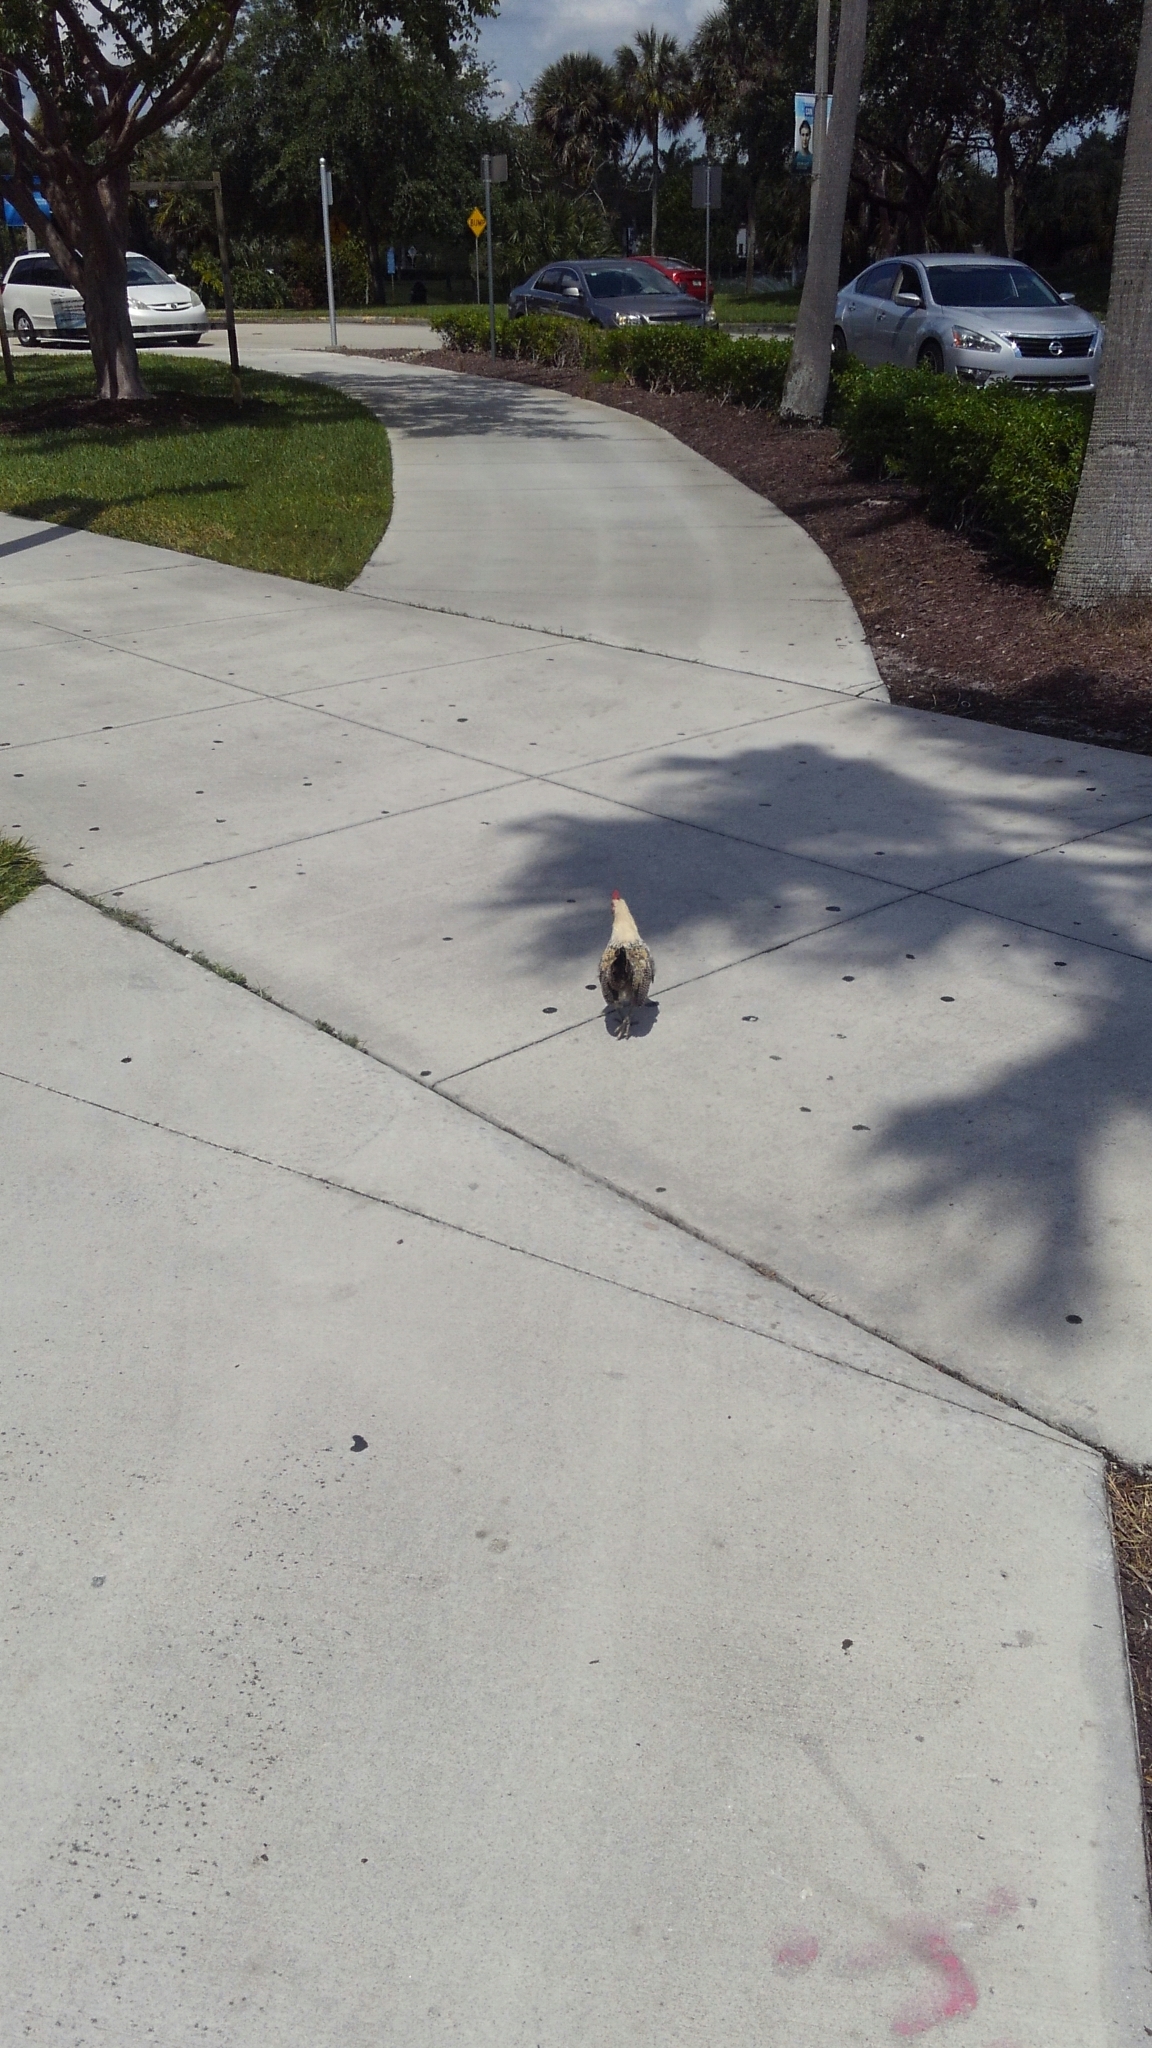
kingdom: Animalia
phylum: Chordata
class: Aves
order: Galliformes
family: Phasianidae
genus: Gallus
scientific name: Gallus gallus
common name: Red junglefowl
